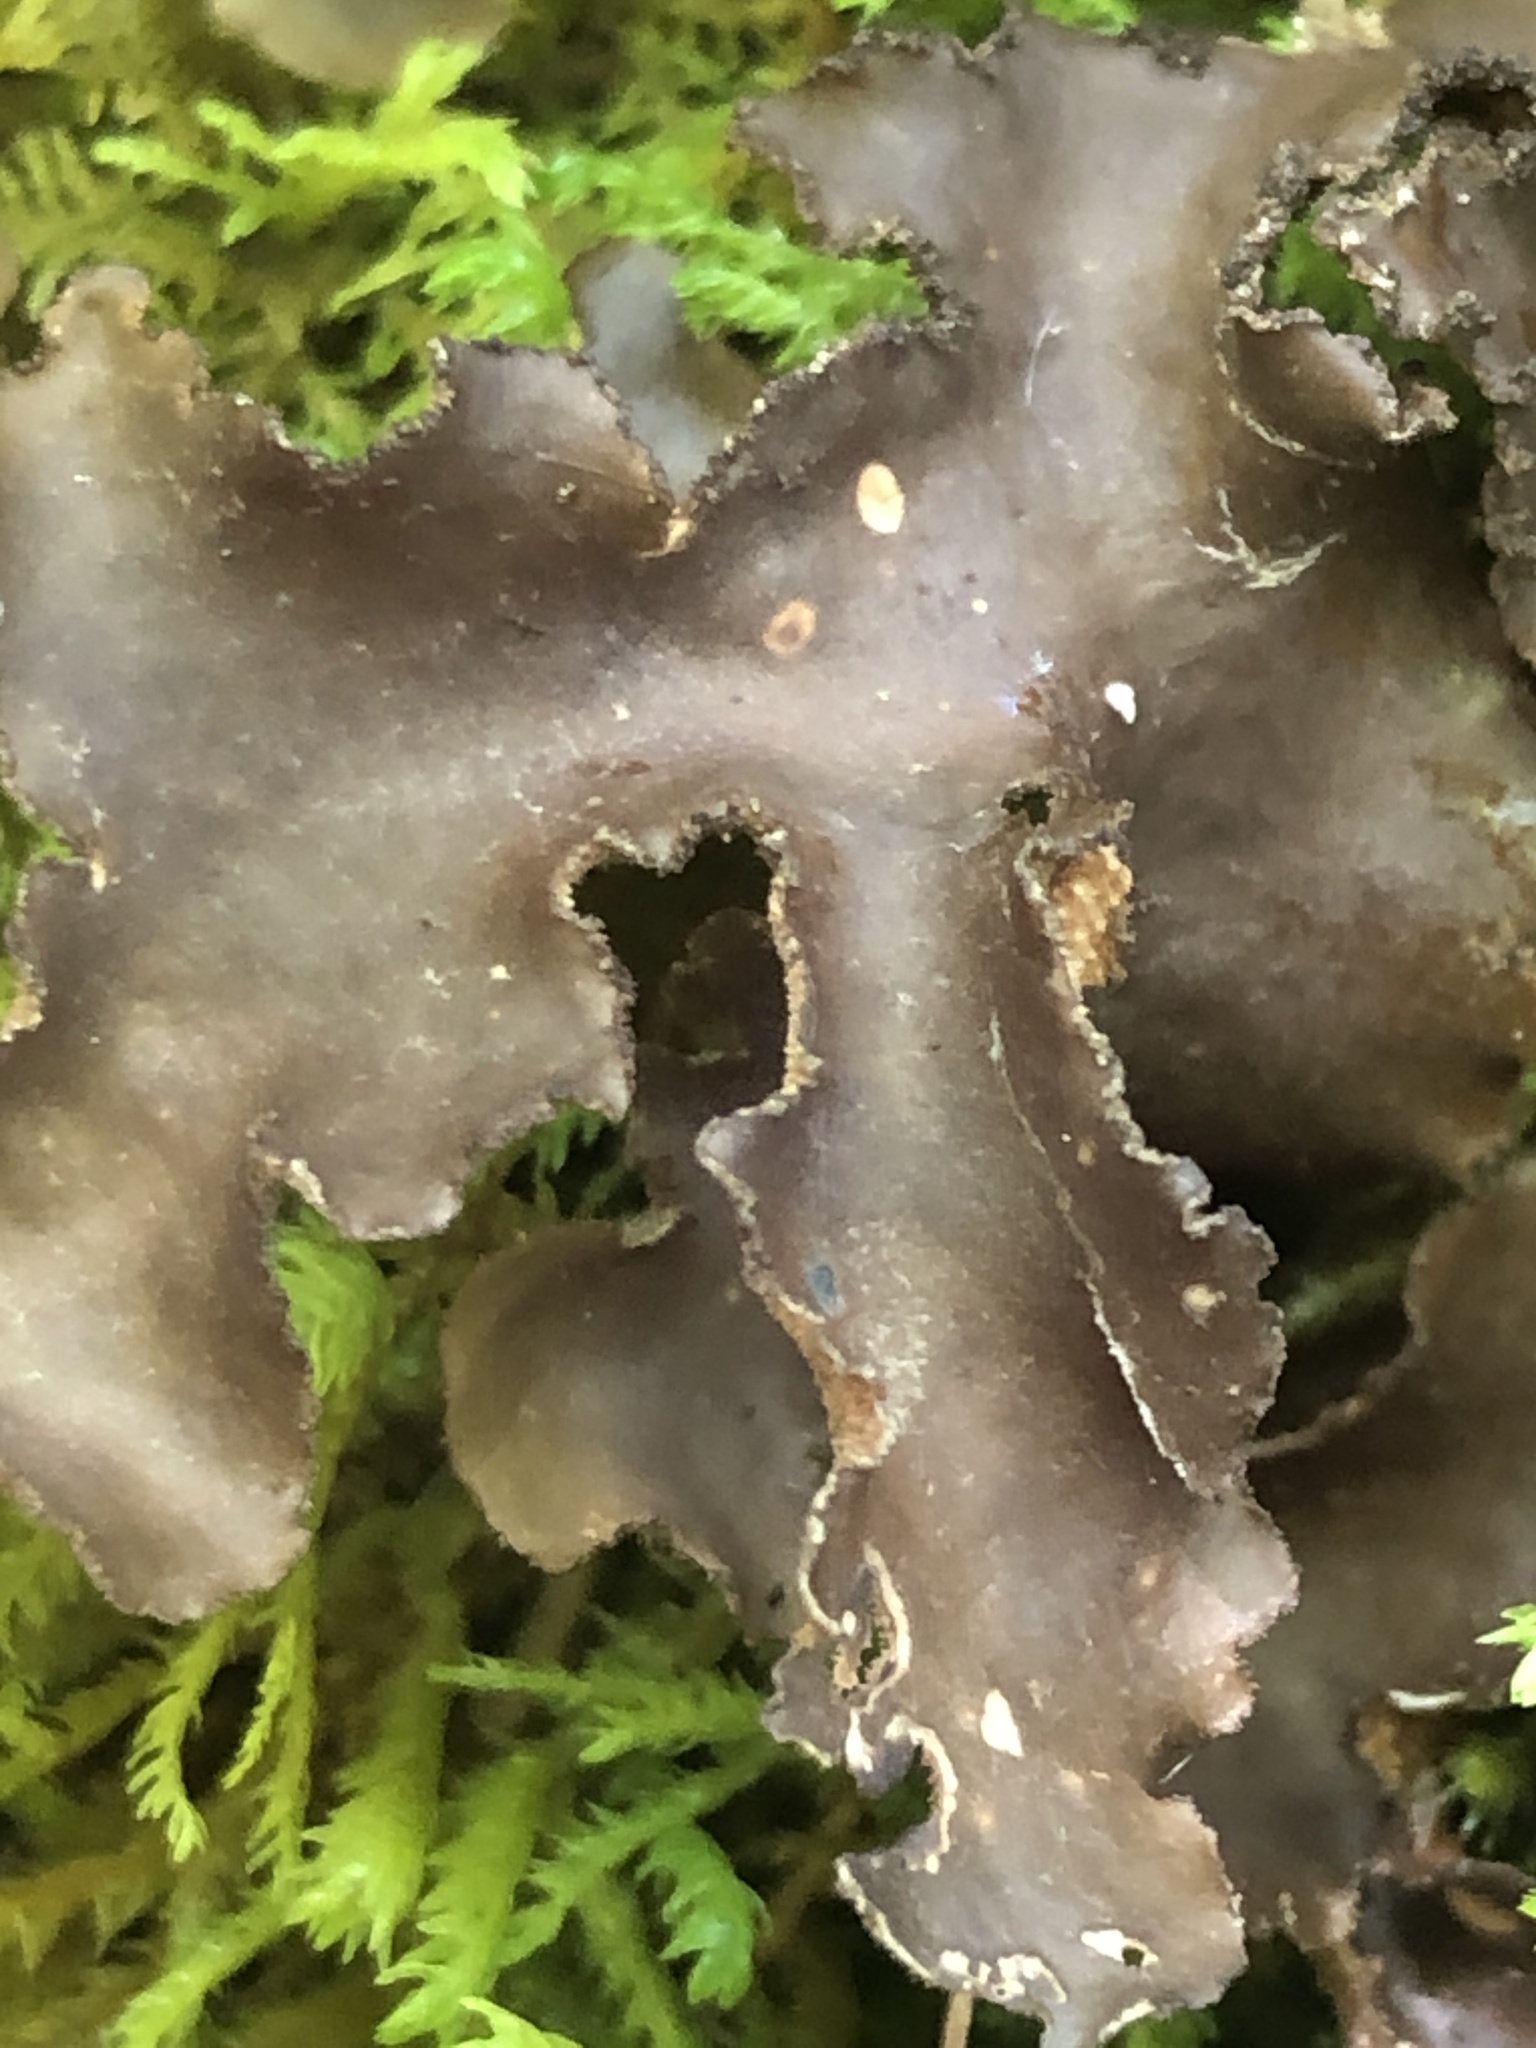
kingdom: Fungi
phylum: Ascomycota
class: Lecanoromycetes
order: Peltigerales
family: Lobariaceae
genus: Sticta
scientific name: Sticta beauvoisii
